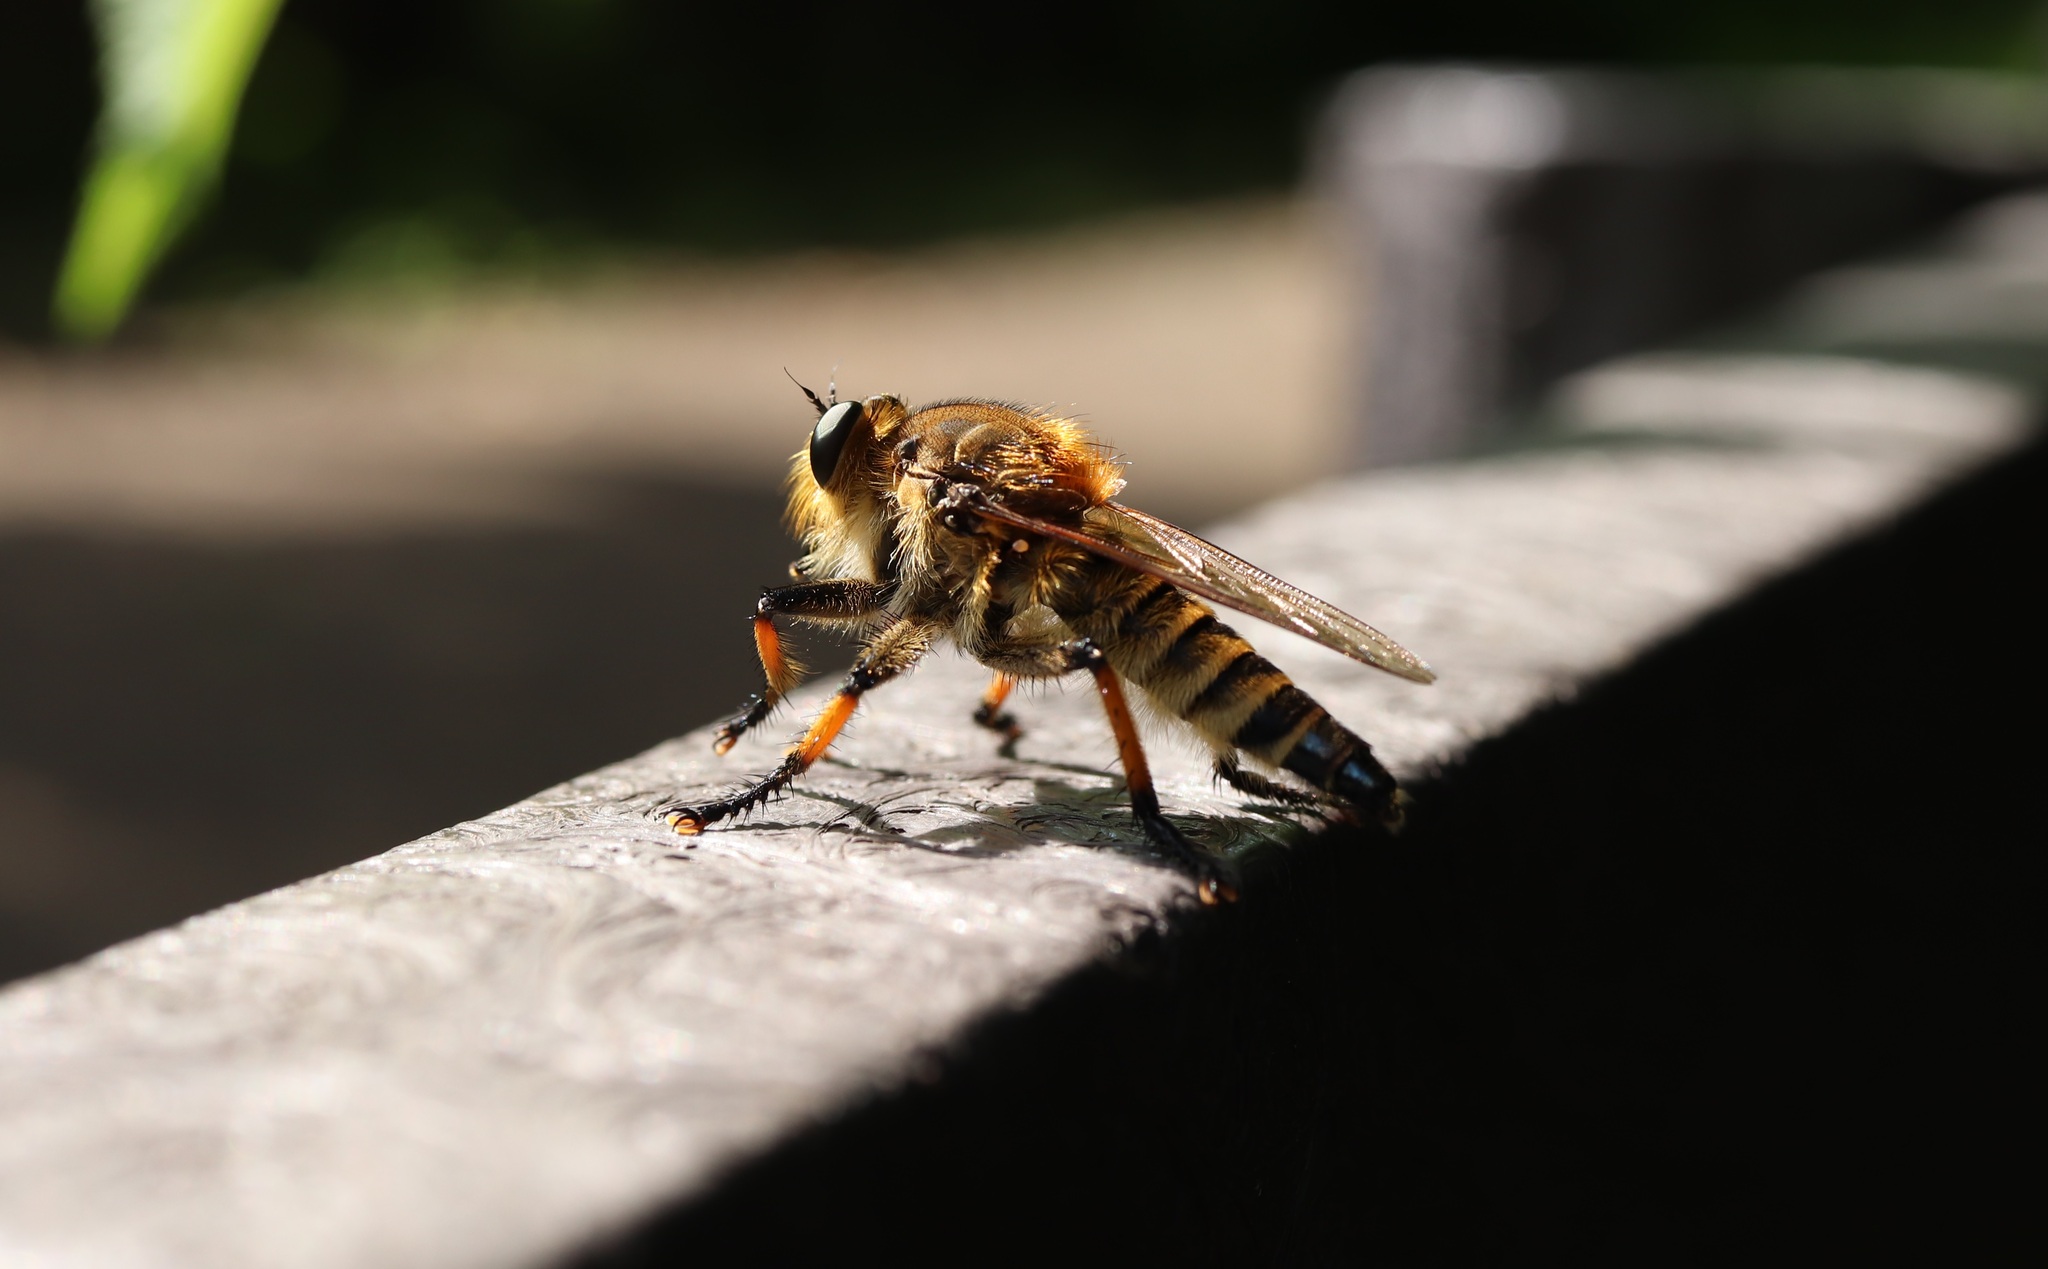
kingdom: Animalia
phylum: Arthropoda
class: Insecta
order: Diptera
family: Asilidae
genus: Promachus
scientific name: Promachus yesonicus
